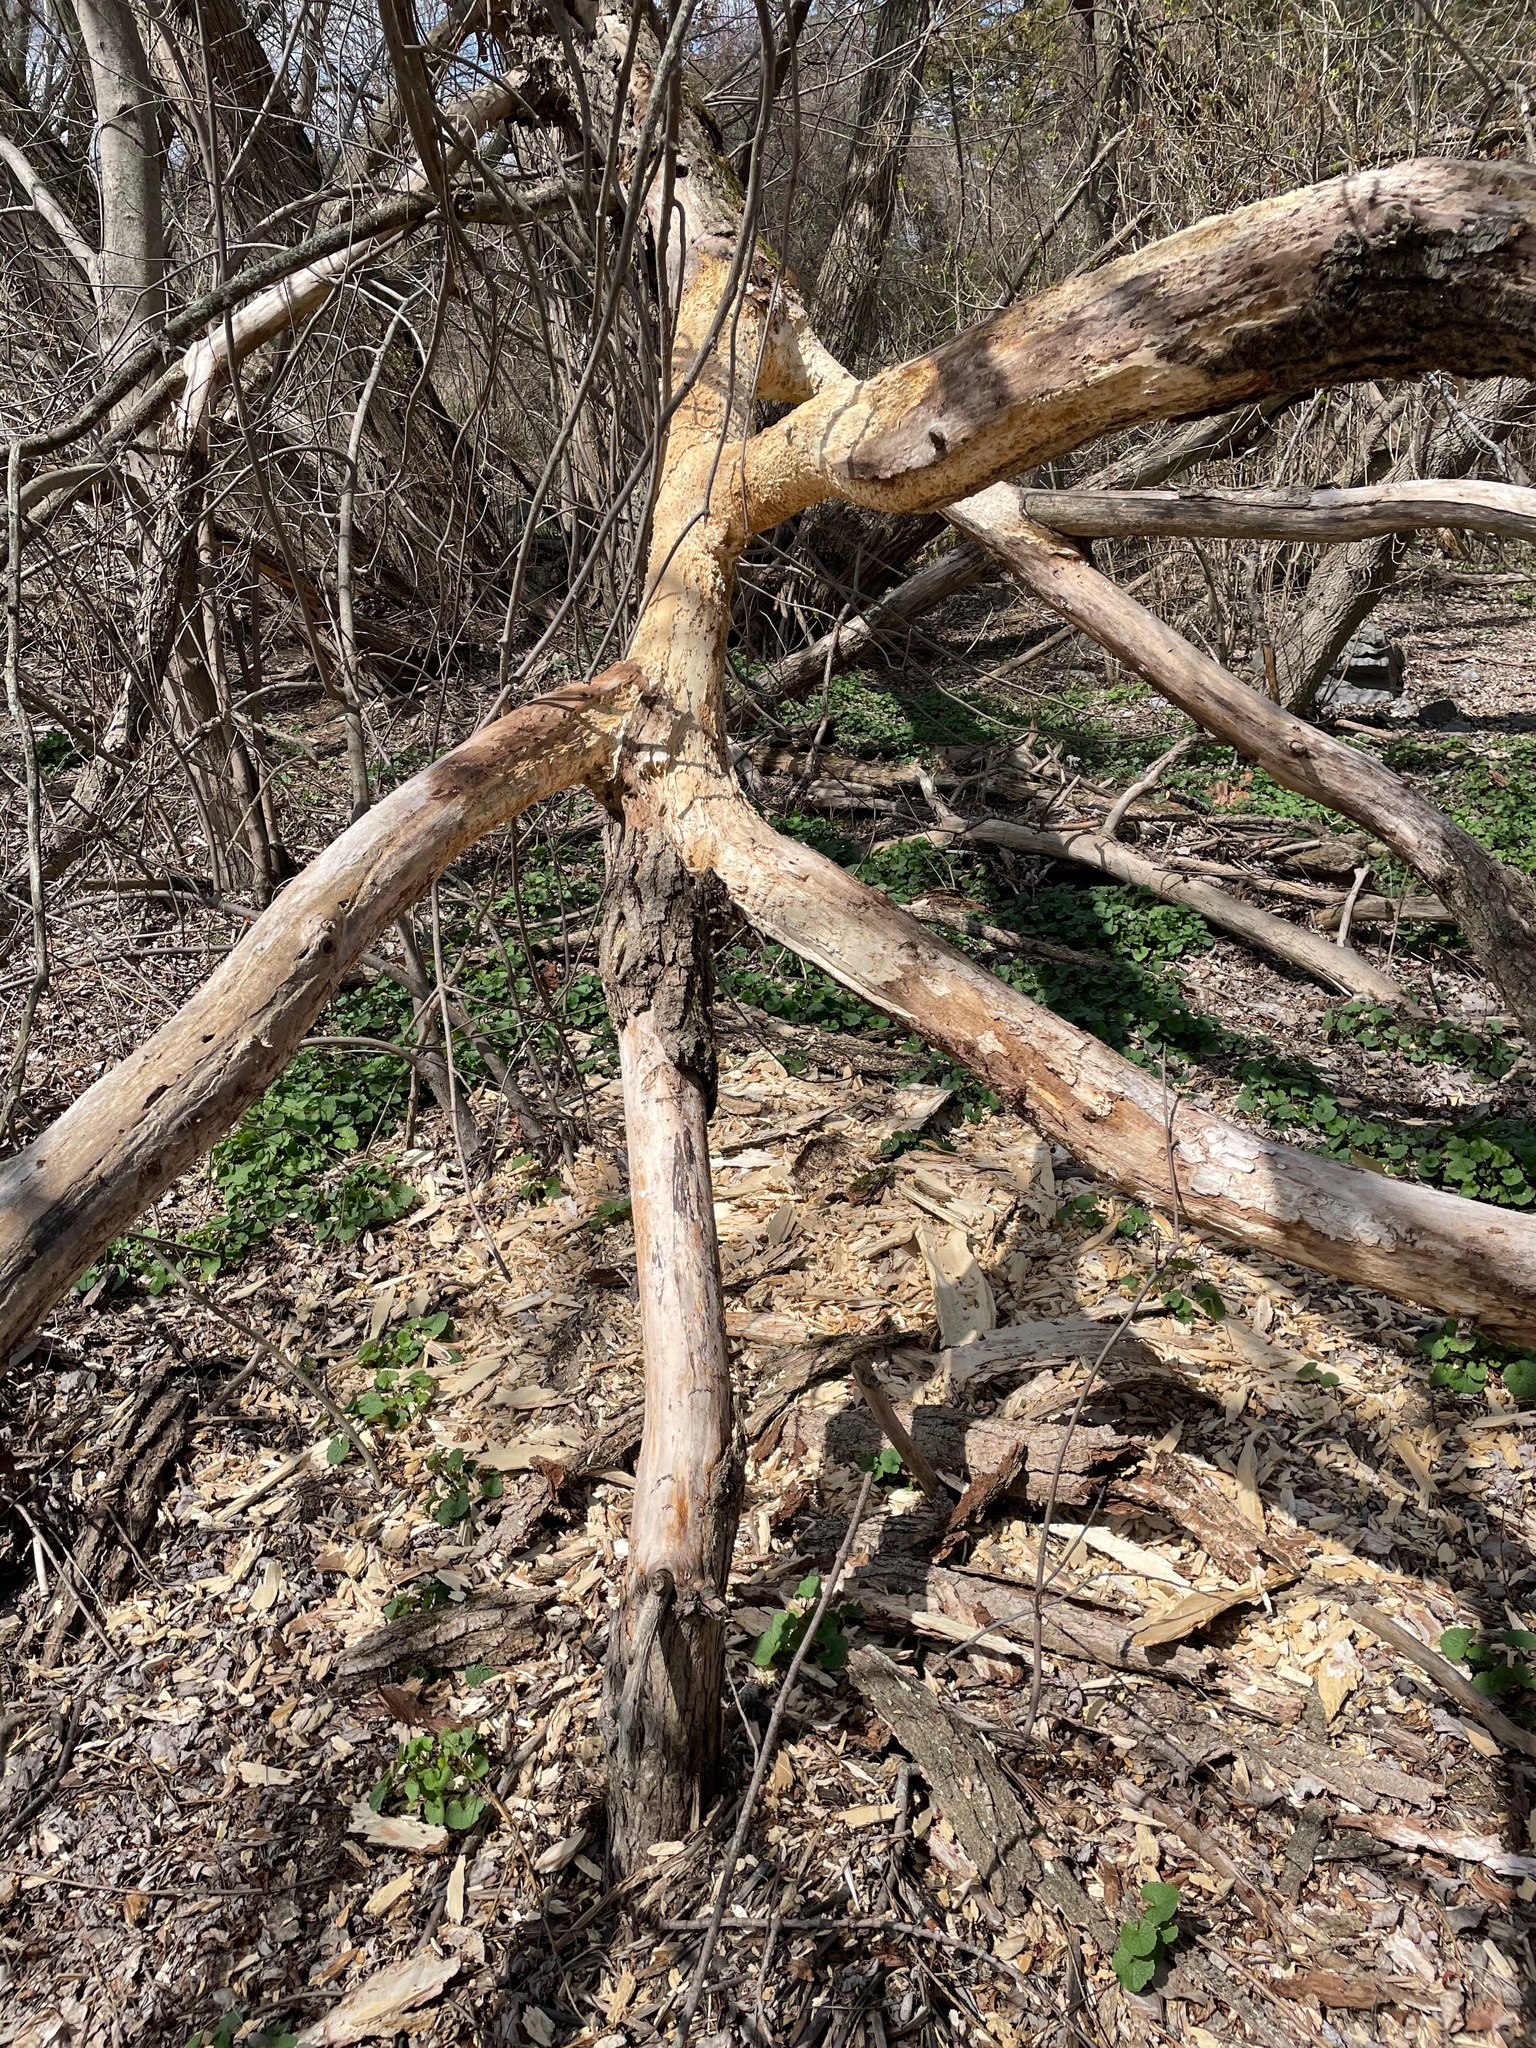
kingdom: Animalia
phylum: Chordata
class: Mammalia
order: Rodentia
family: Erethizontidae
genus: Erethizon
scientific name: Erethizon dorsatus
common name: North american porcupine
